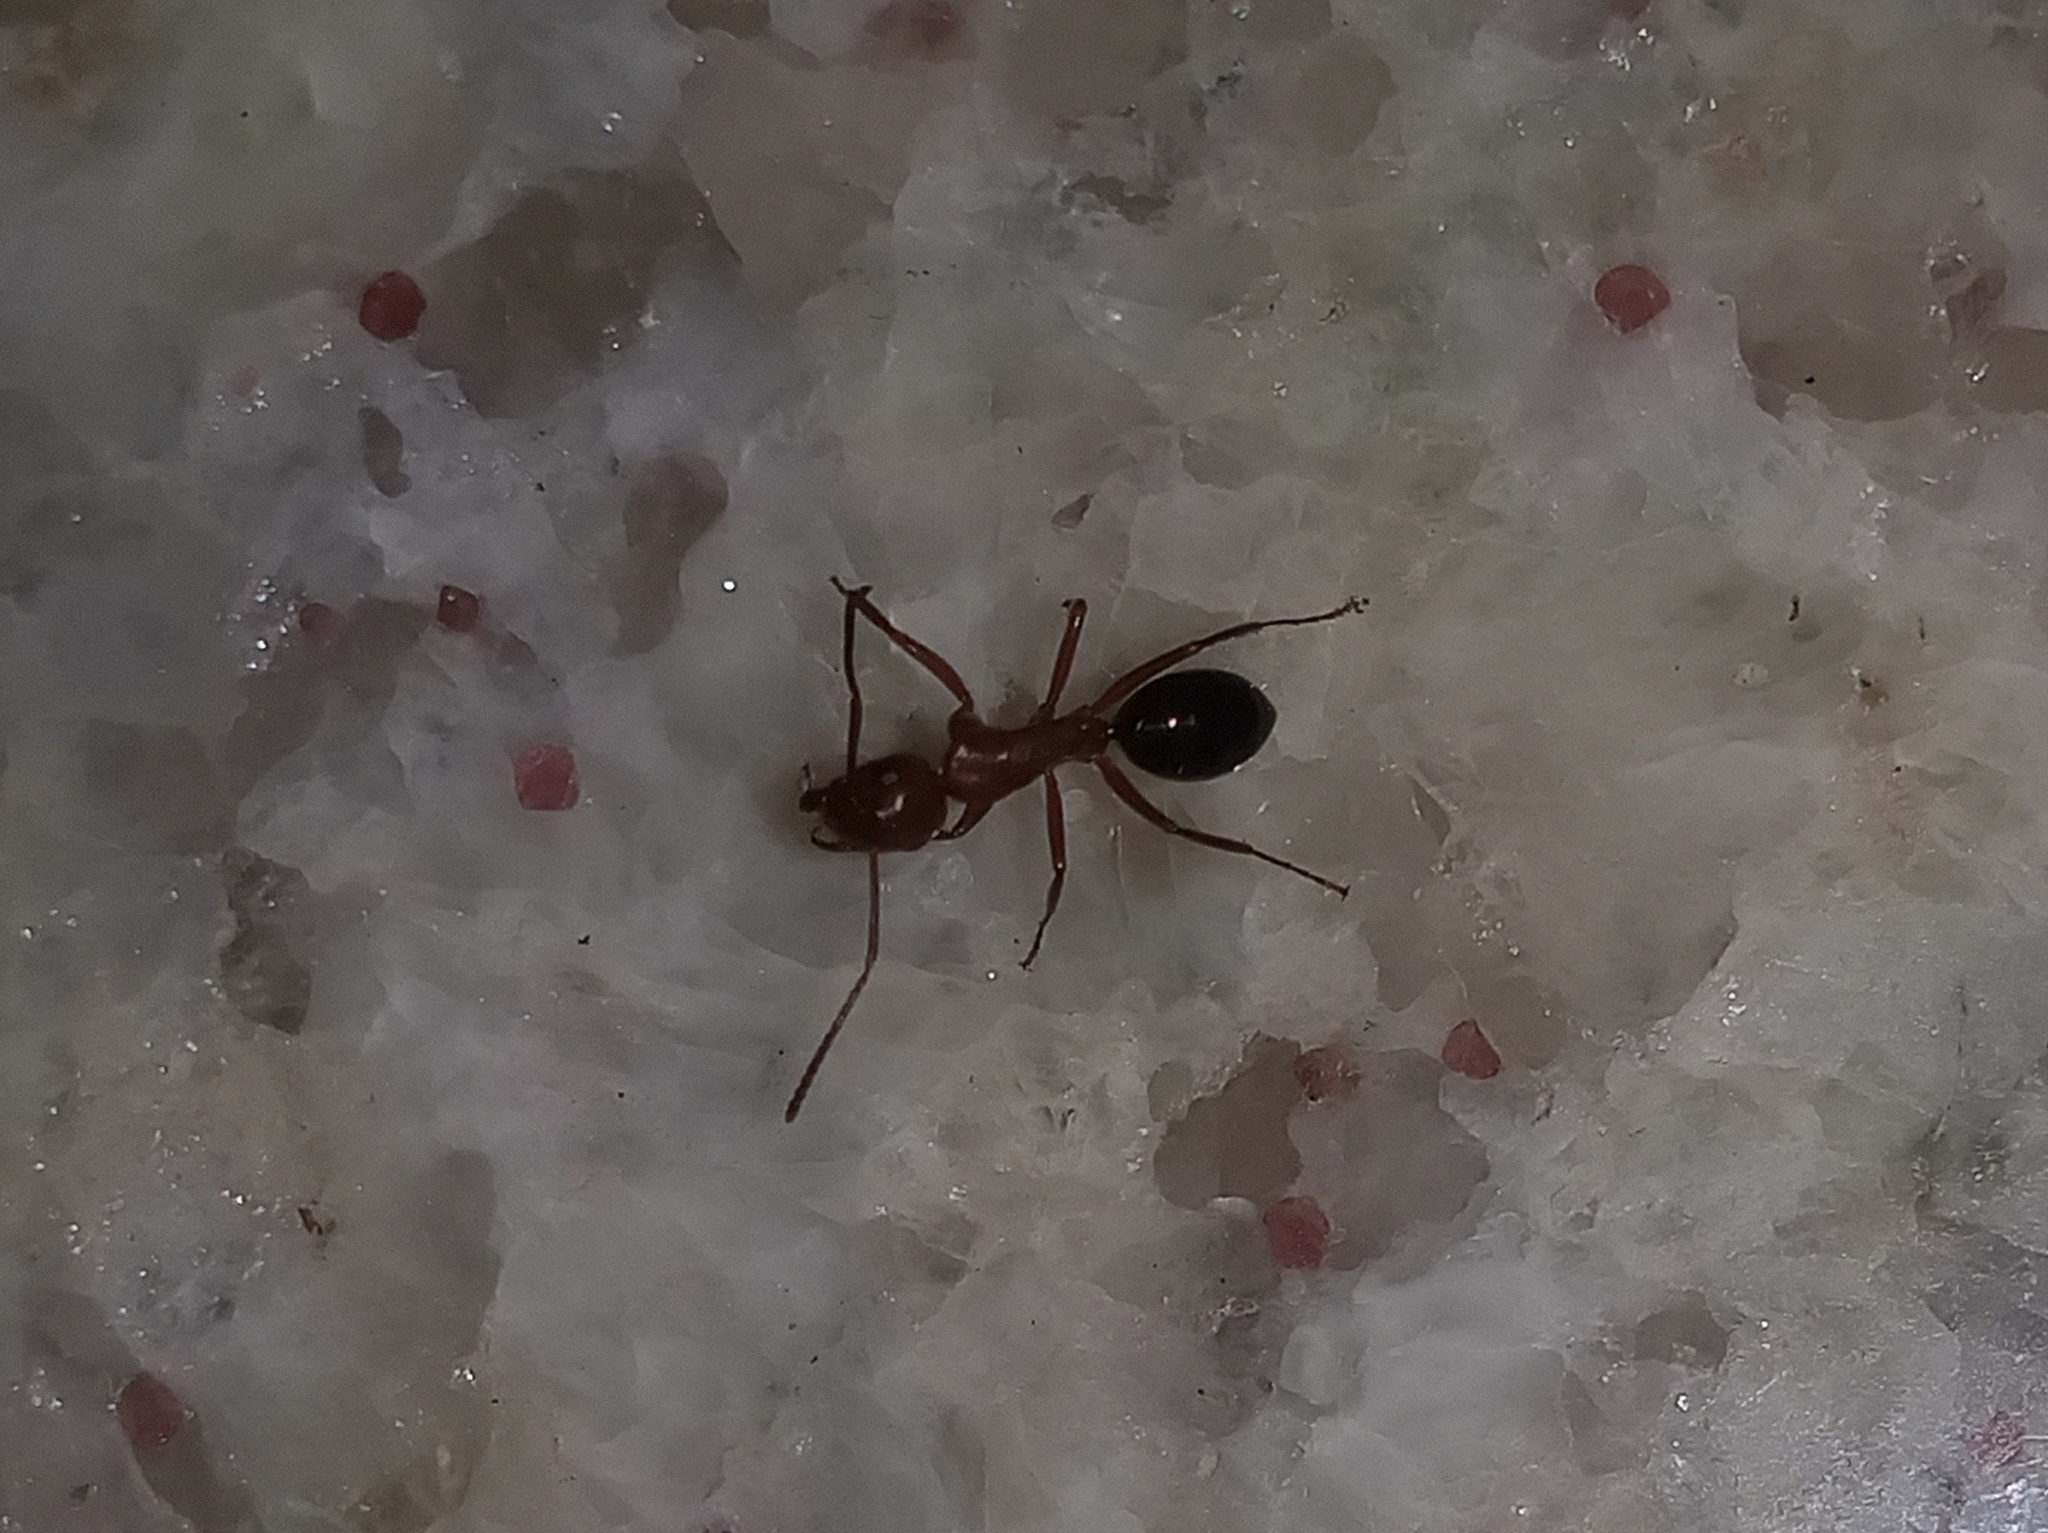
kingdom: Animalia
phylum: Arthropoda
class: Insecta
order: Hymenoptera
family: Formicidae
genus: Camponotus
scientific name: Camponotus decipiens
